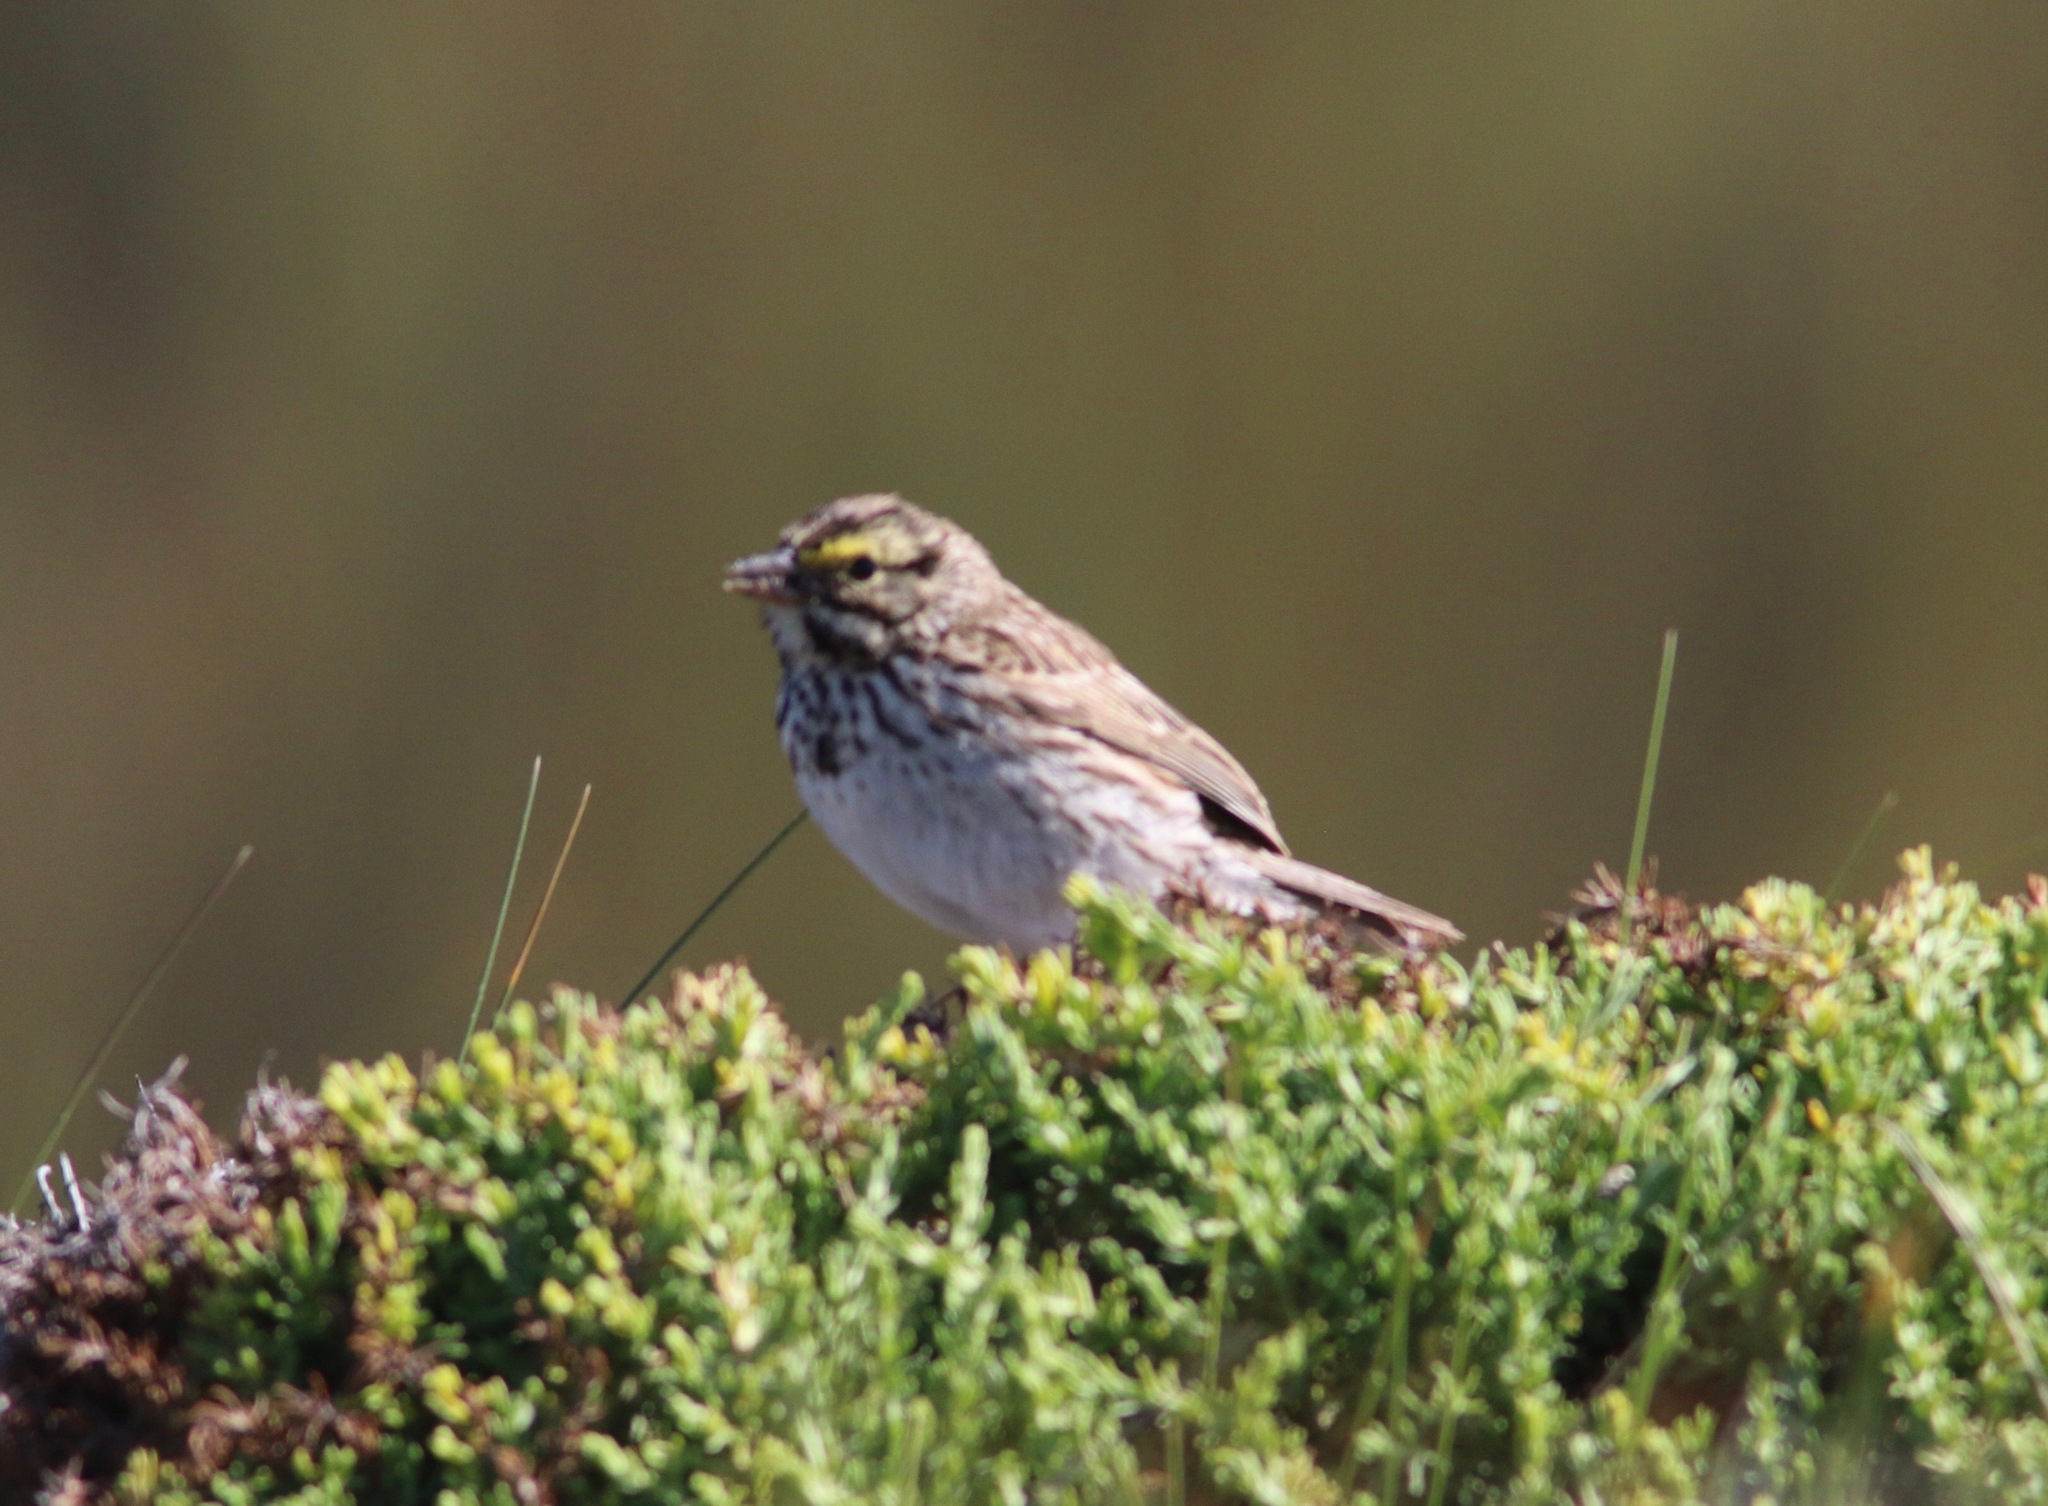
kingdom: Animalia
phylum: Chordata
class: Aves
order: Passeriformes
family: Passerellidae
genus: Passerculus
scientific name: Passerculus sandwichensis
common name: Savannah sparrow
